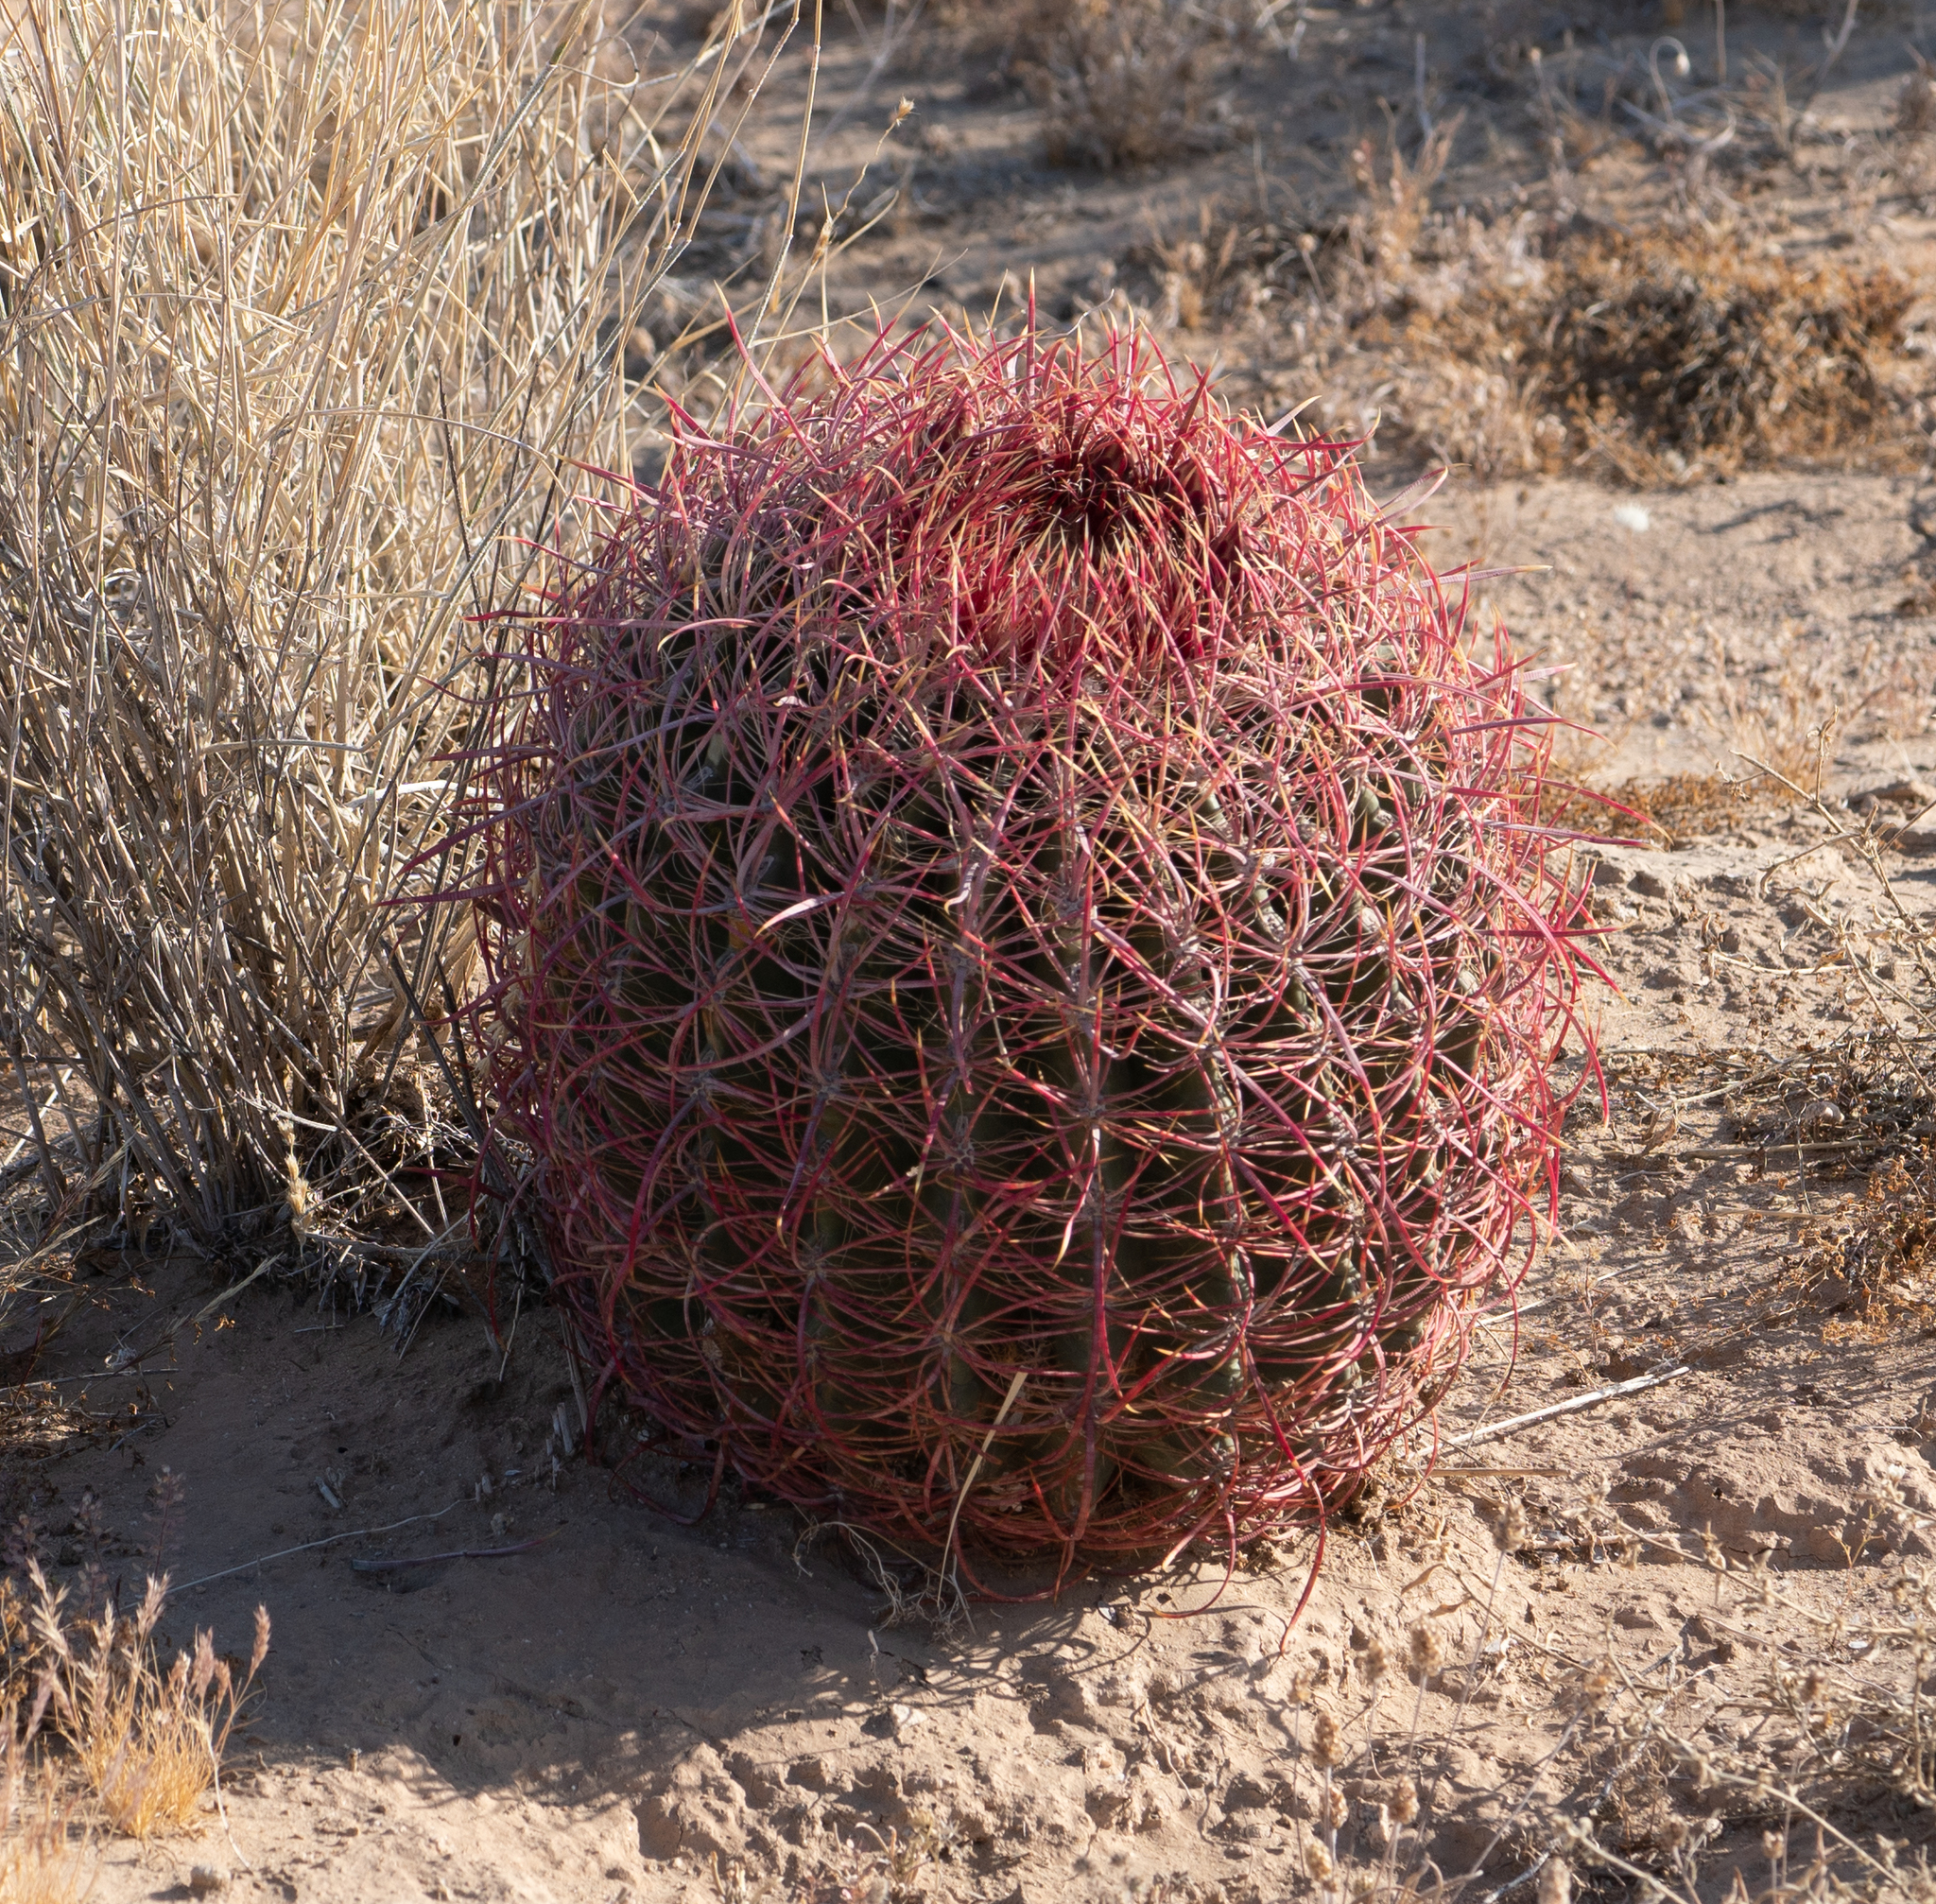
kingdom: Plantae
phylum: Tracheophyta
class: Magnoliopsida
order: Caryophyllales
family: Cactaceae
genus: Ferocactus
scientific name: Ferocactus cylindraceus
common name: California barrel cactus
